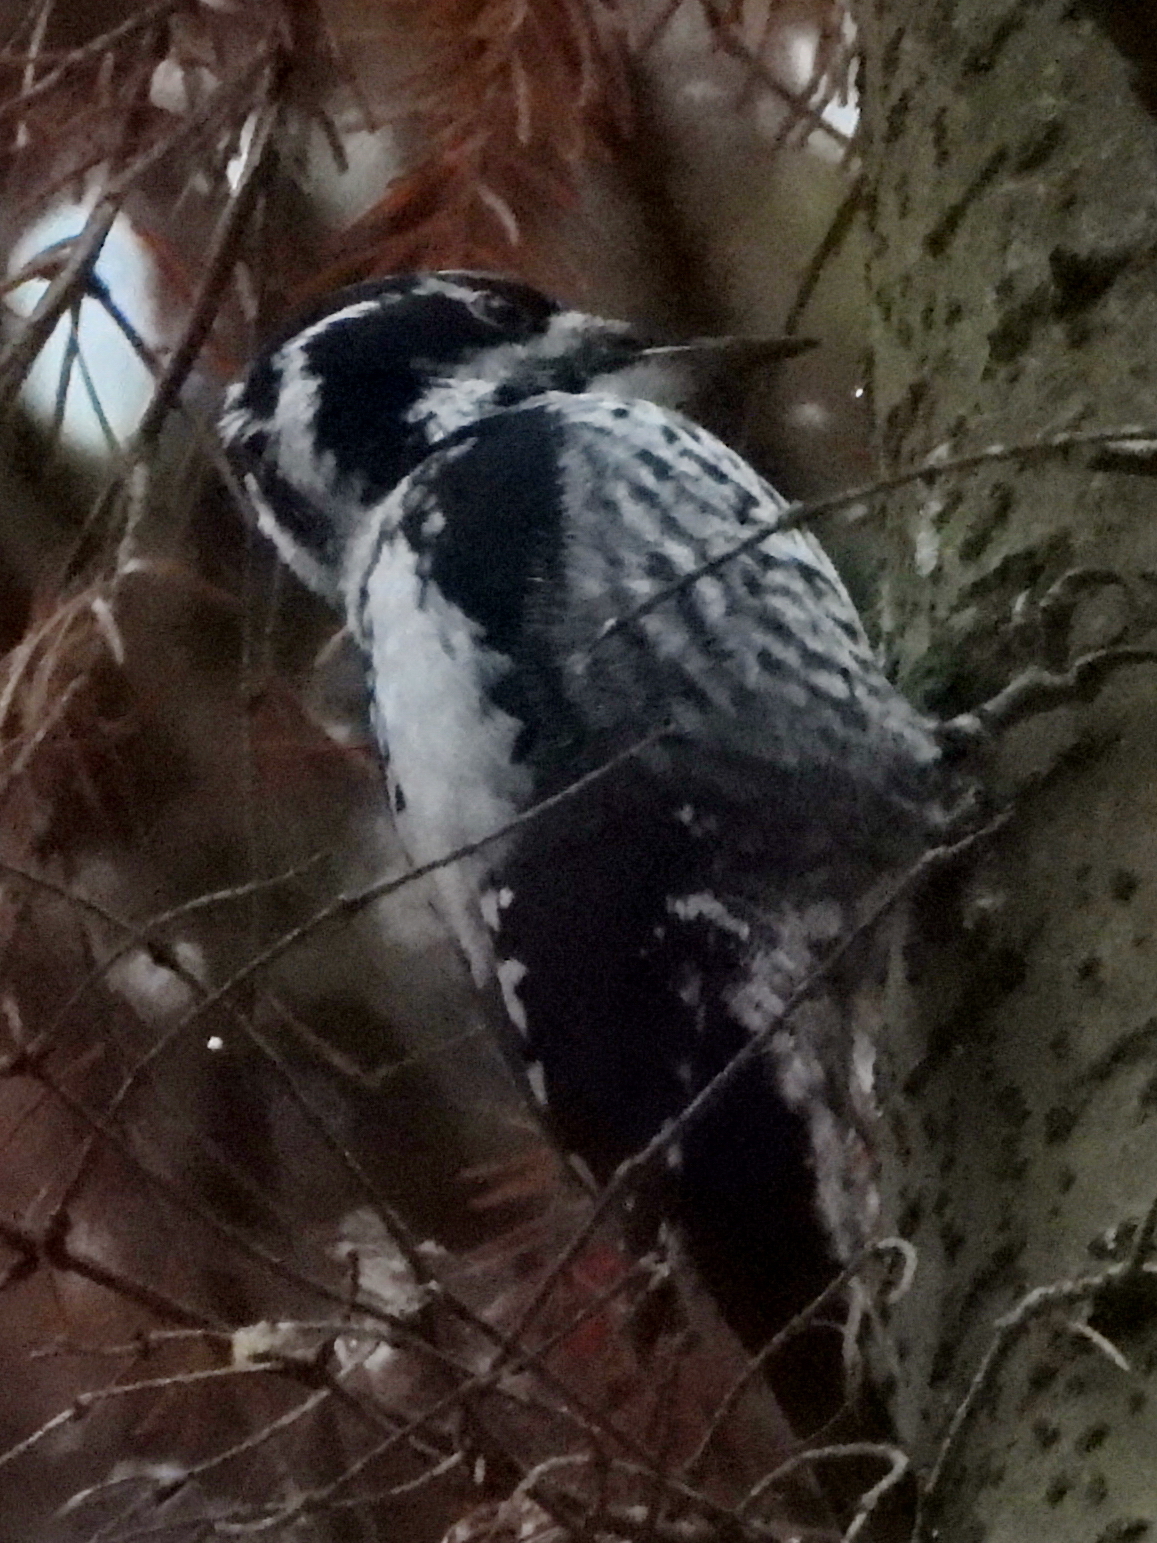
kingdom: Animalia
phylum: Chordata
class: Aves
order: Piciformes
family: Picidae
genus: Picoides
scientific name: Picoides tridactylus
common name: Eurasian three-toed woodpecker
